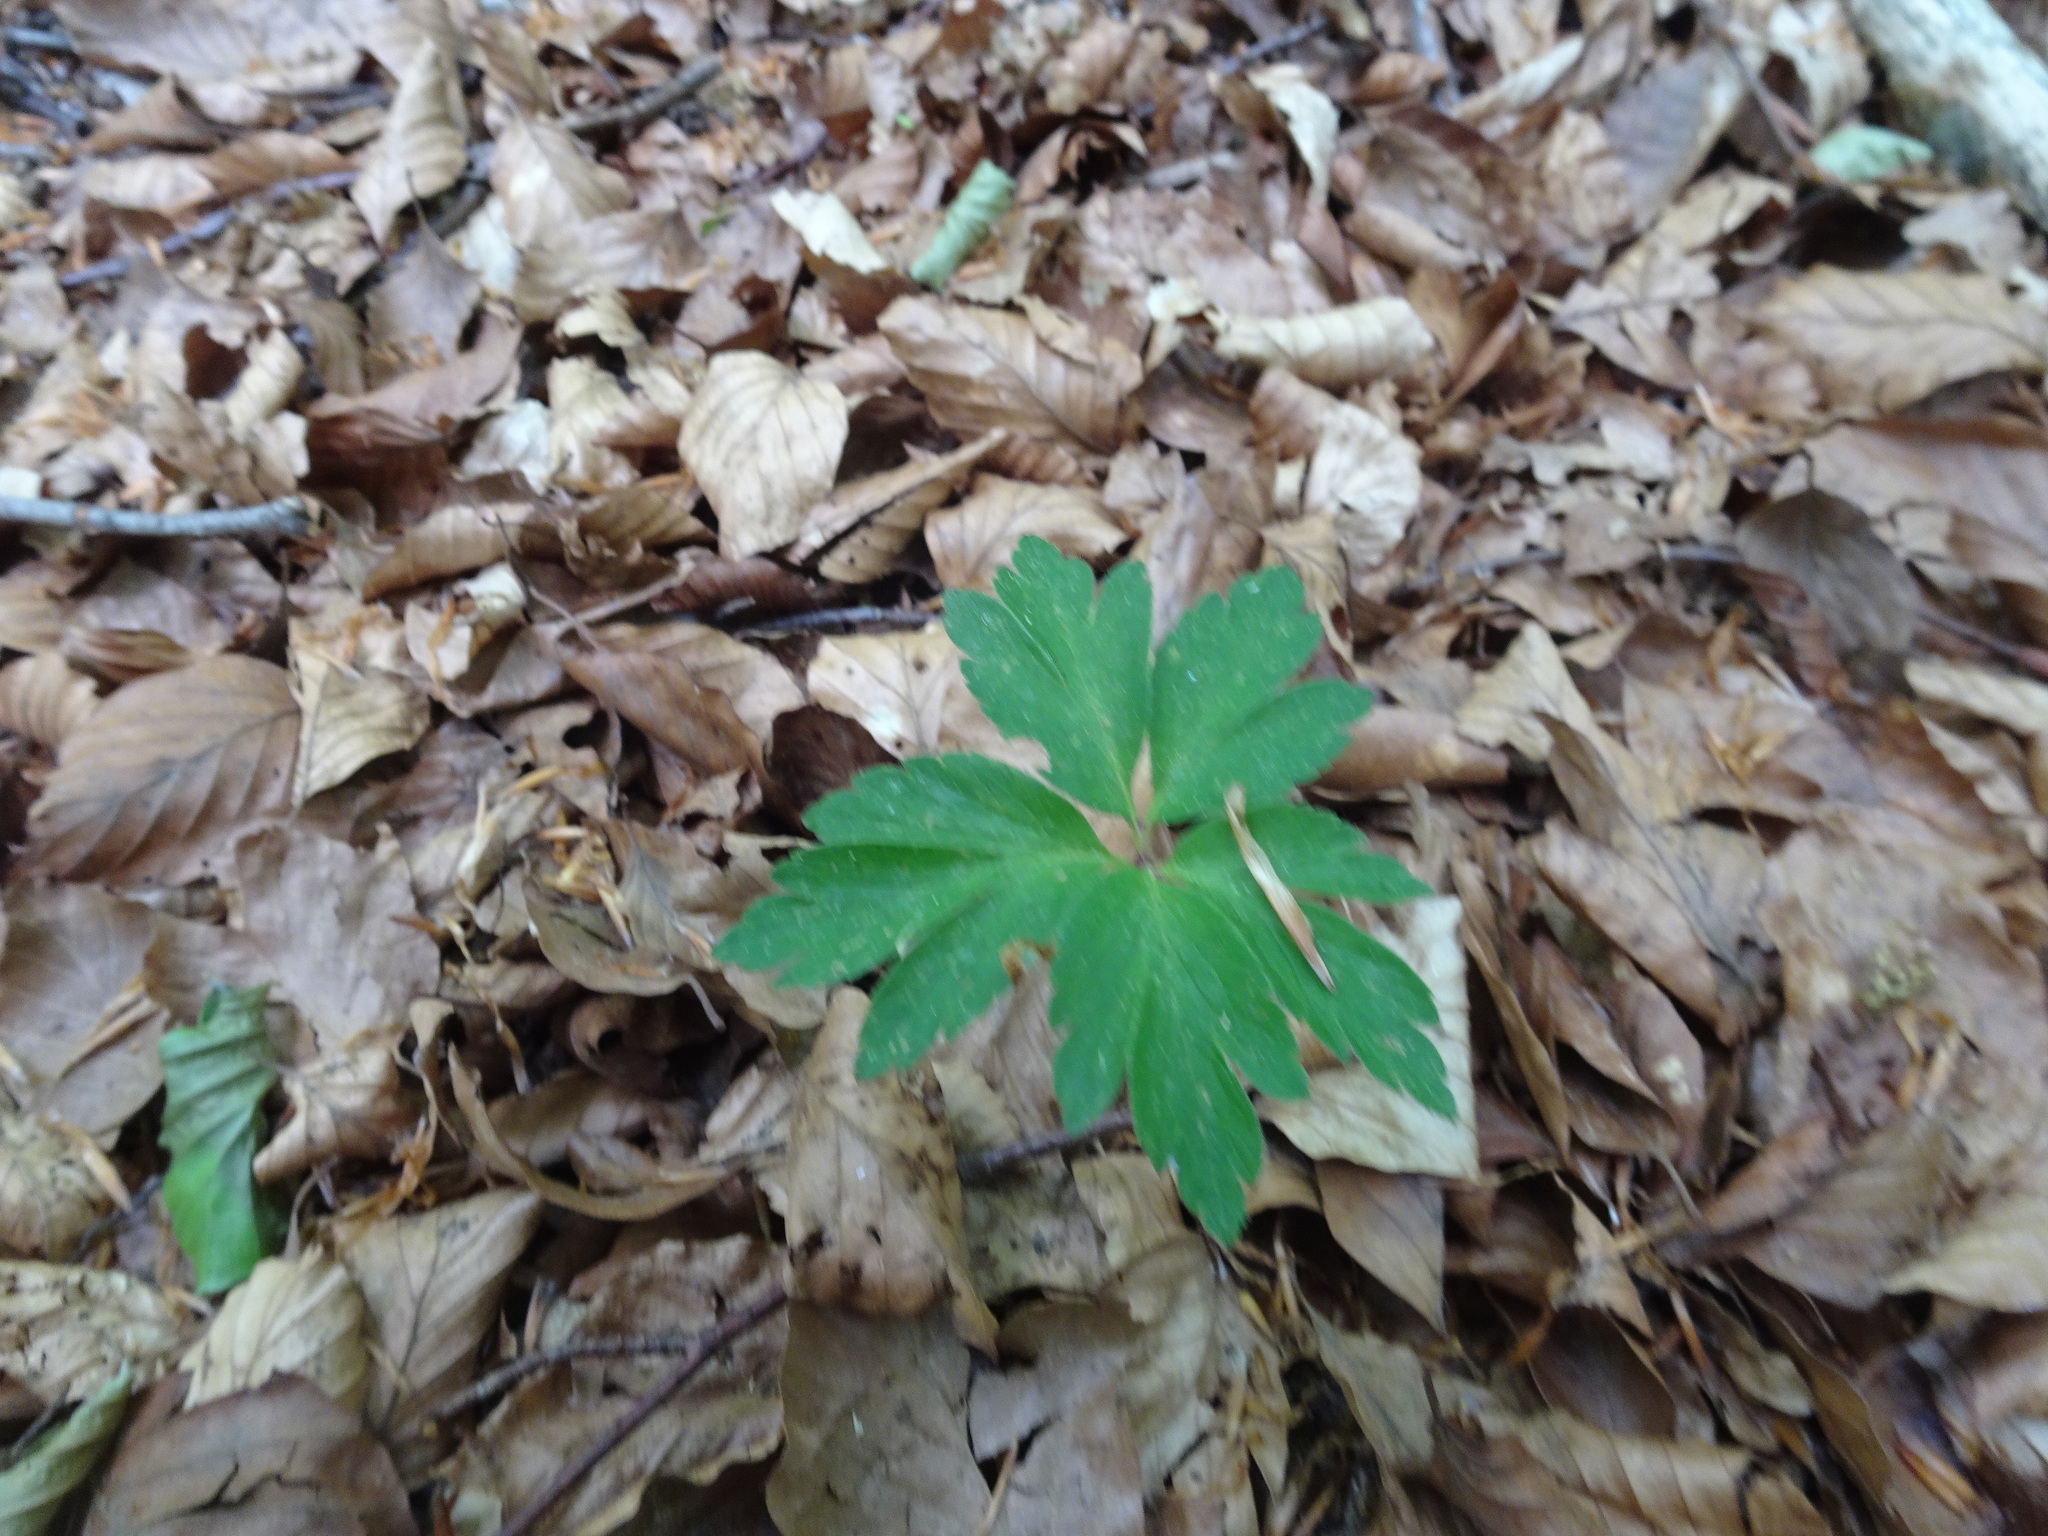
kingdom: Plantae
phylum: Tracheophyta
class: Magnoliopsida
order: Ranunculales
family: Ranunculaceae
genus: Anemone
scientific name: Anemone nemorosa
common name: Wood anemone
